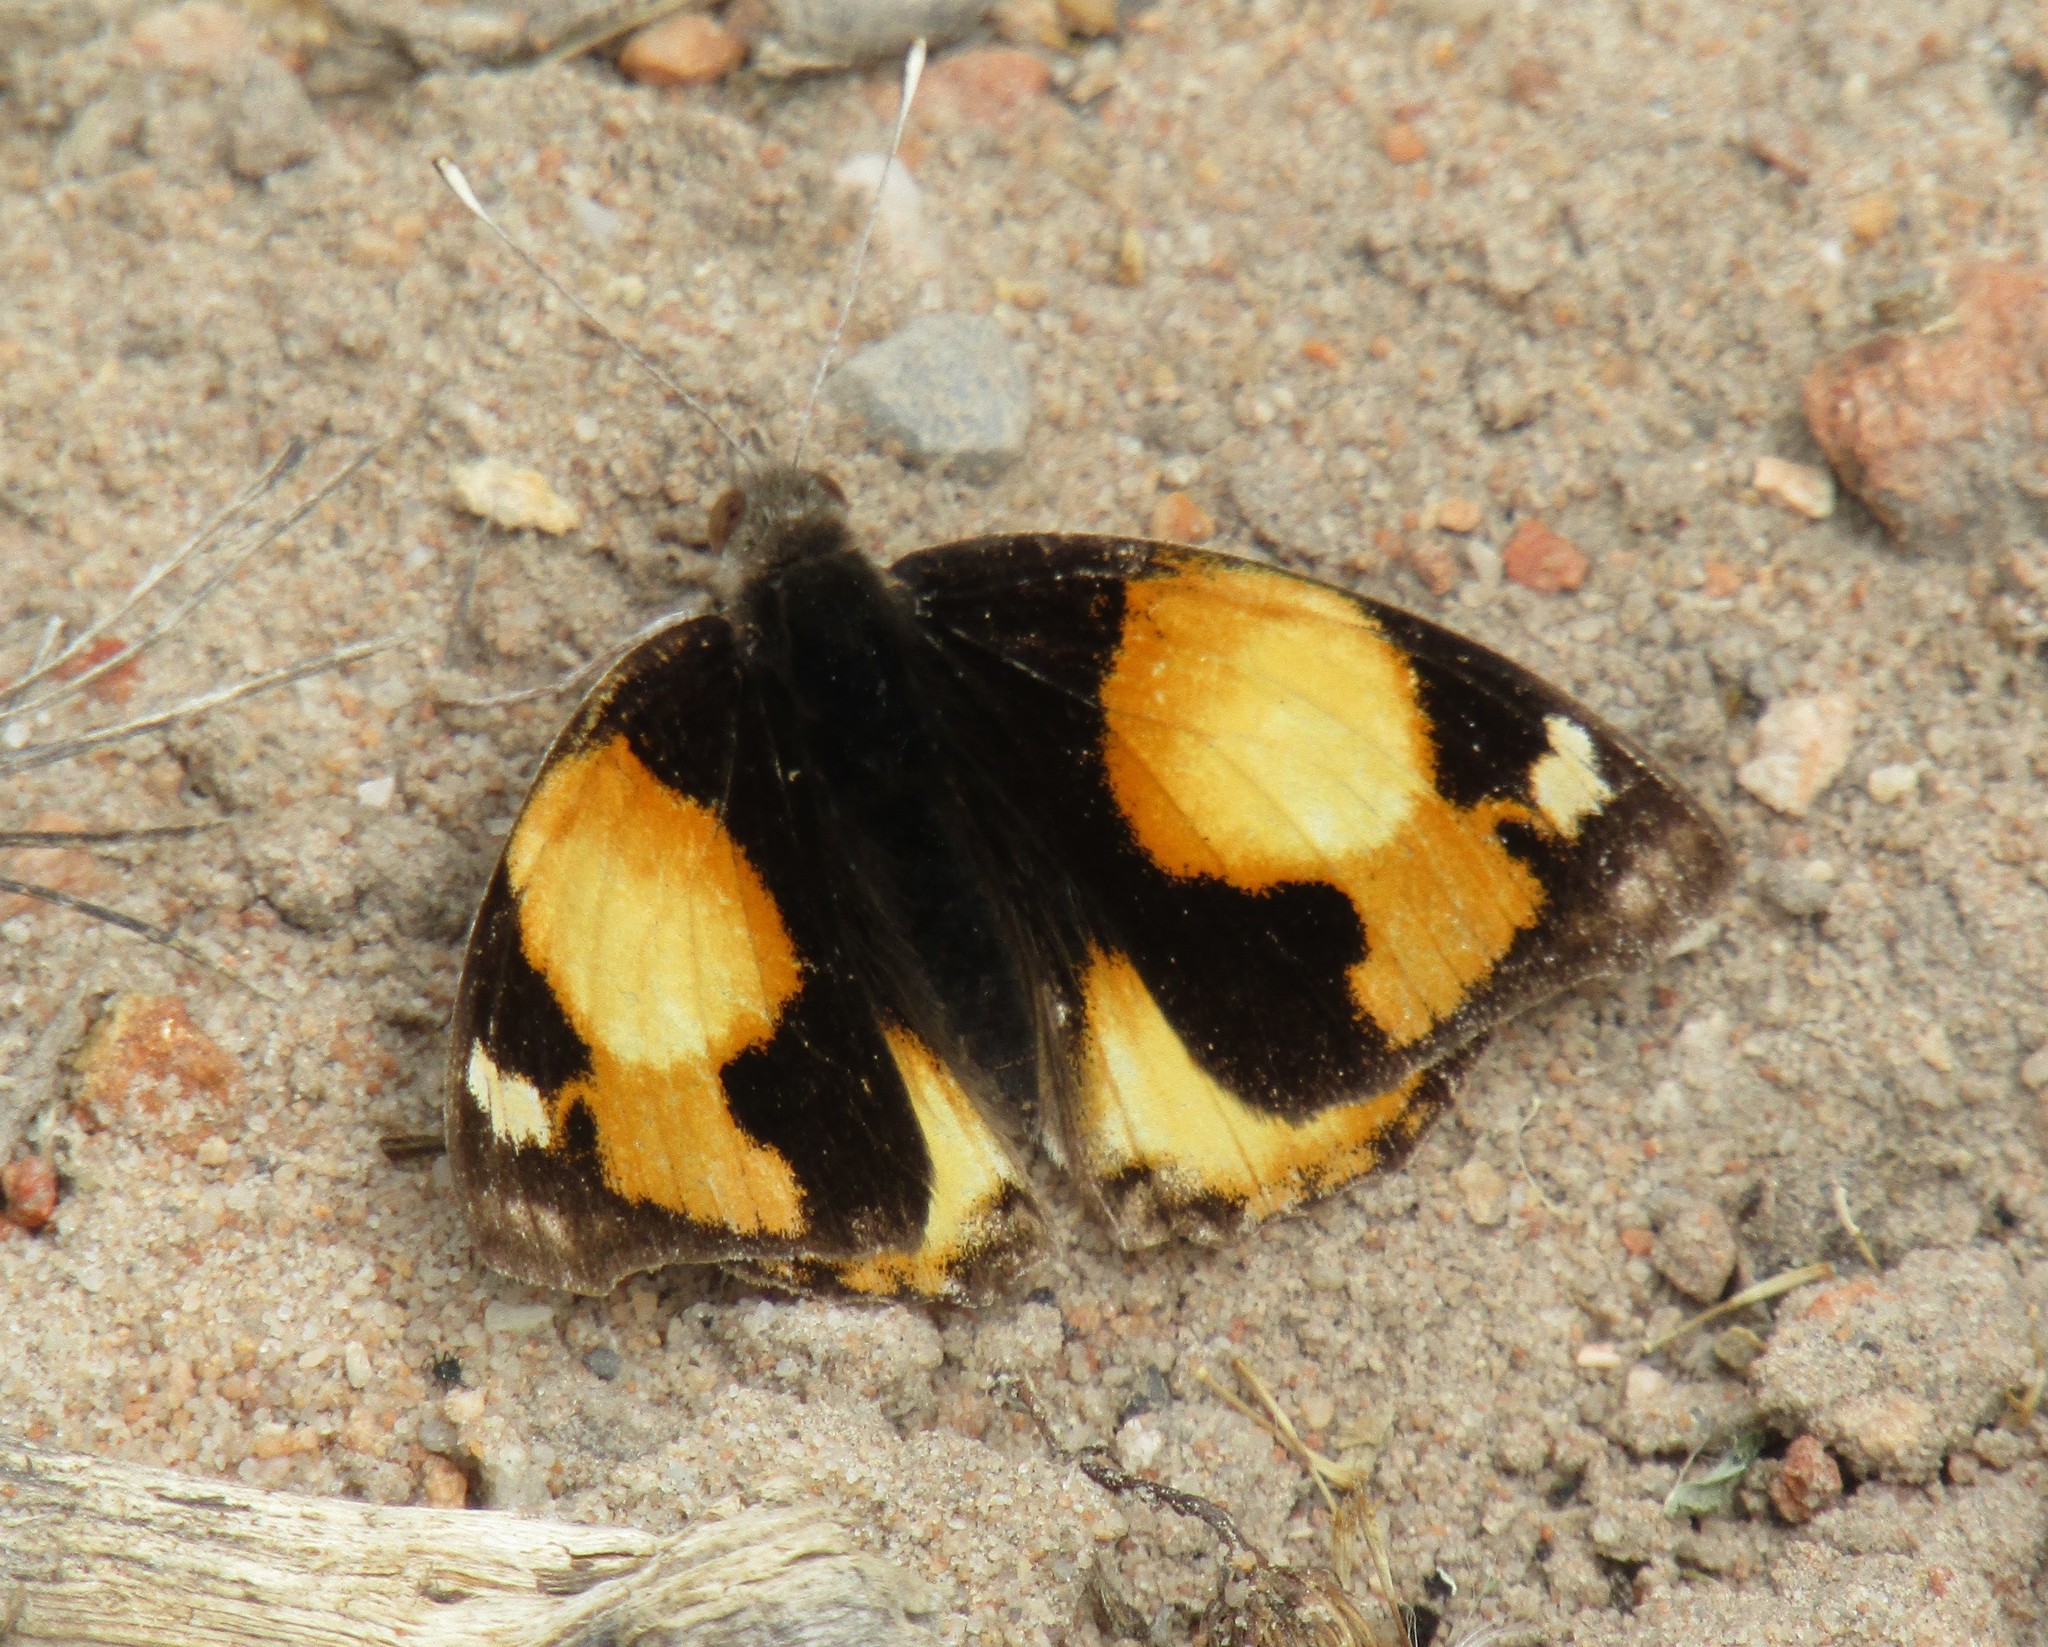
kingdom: Animalia
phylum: Arthropoda
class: Insecta
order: Lepidoptera
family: Nymphalidae
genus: Junonia
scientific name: Junonia hierta
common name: Yellow pansy
